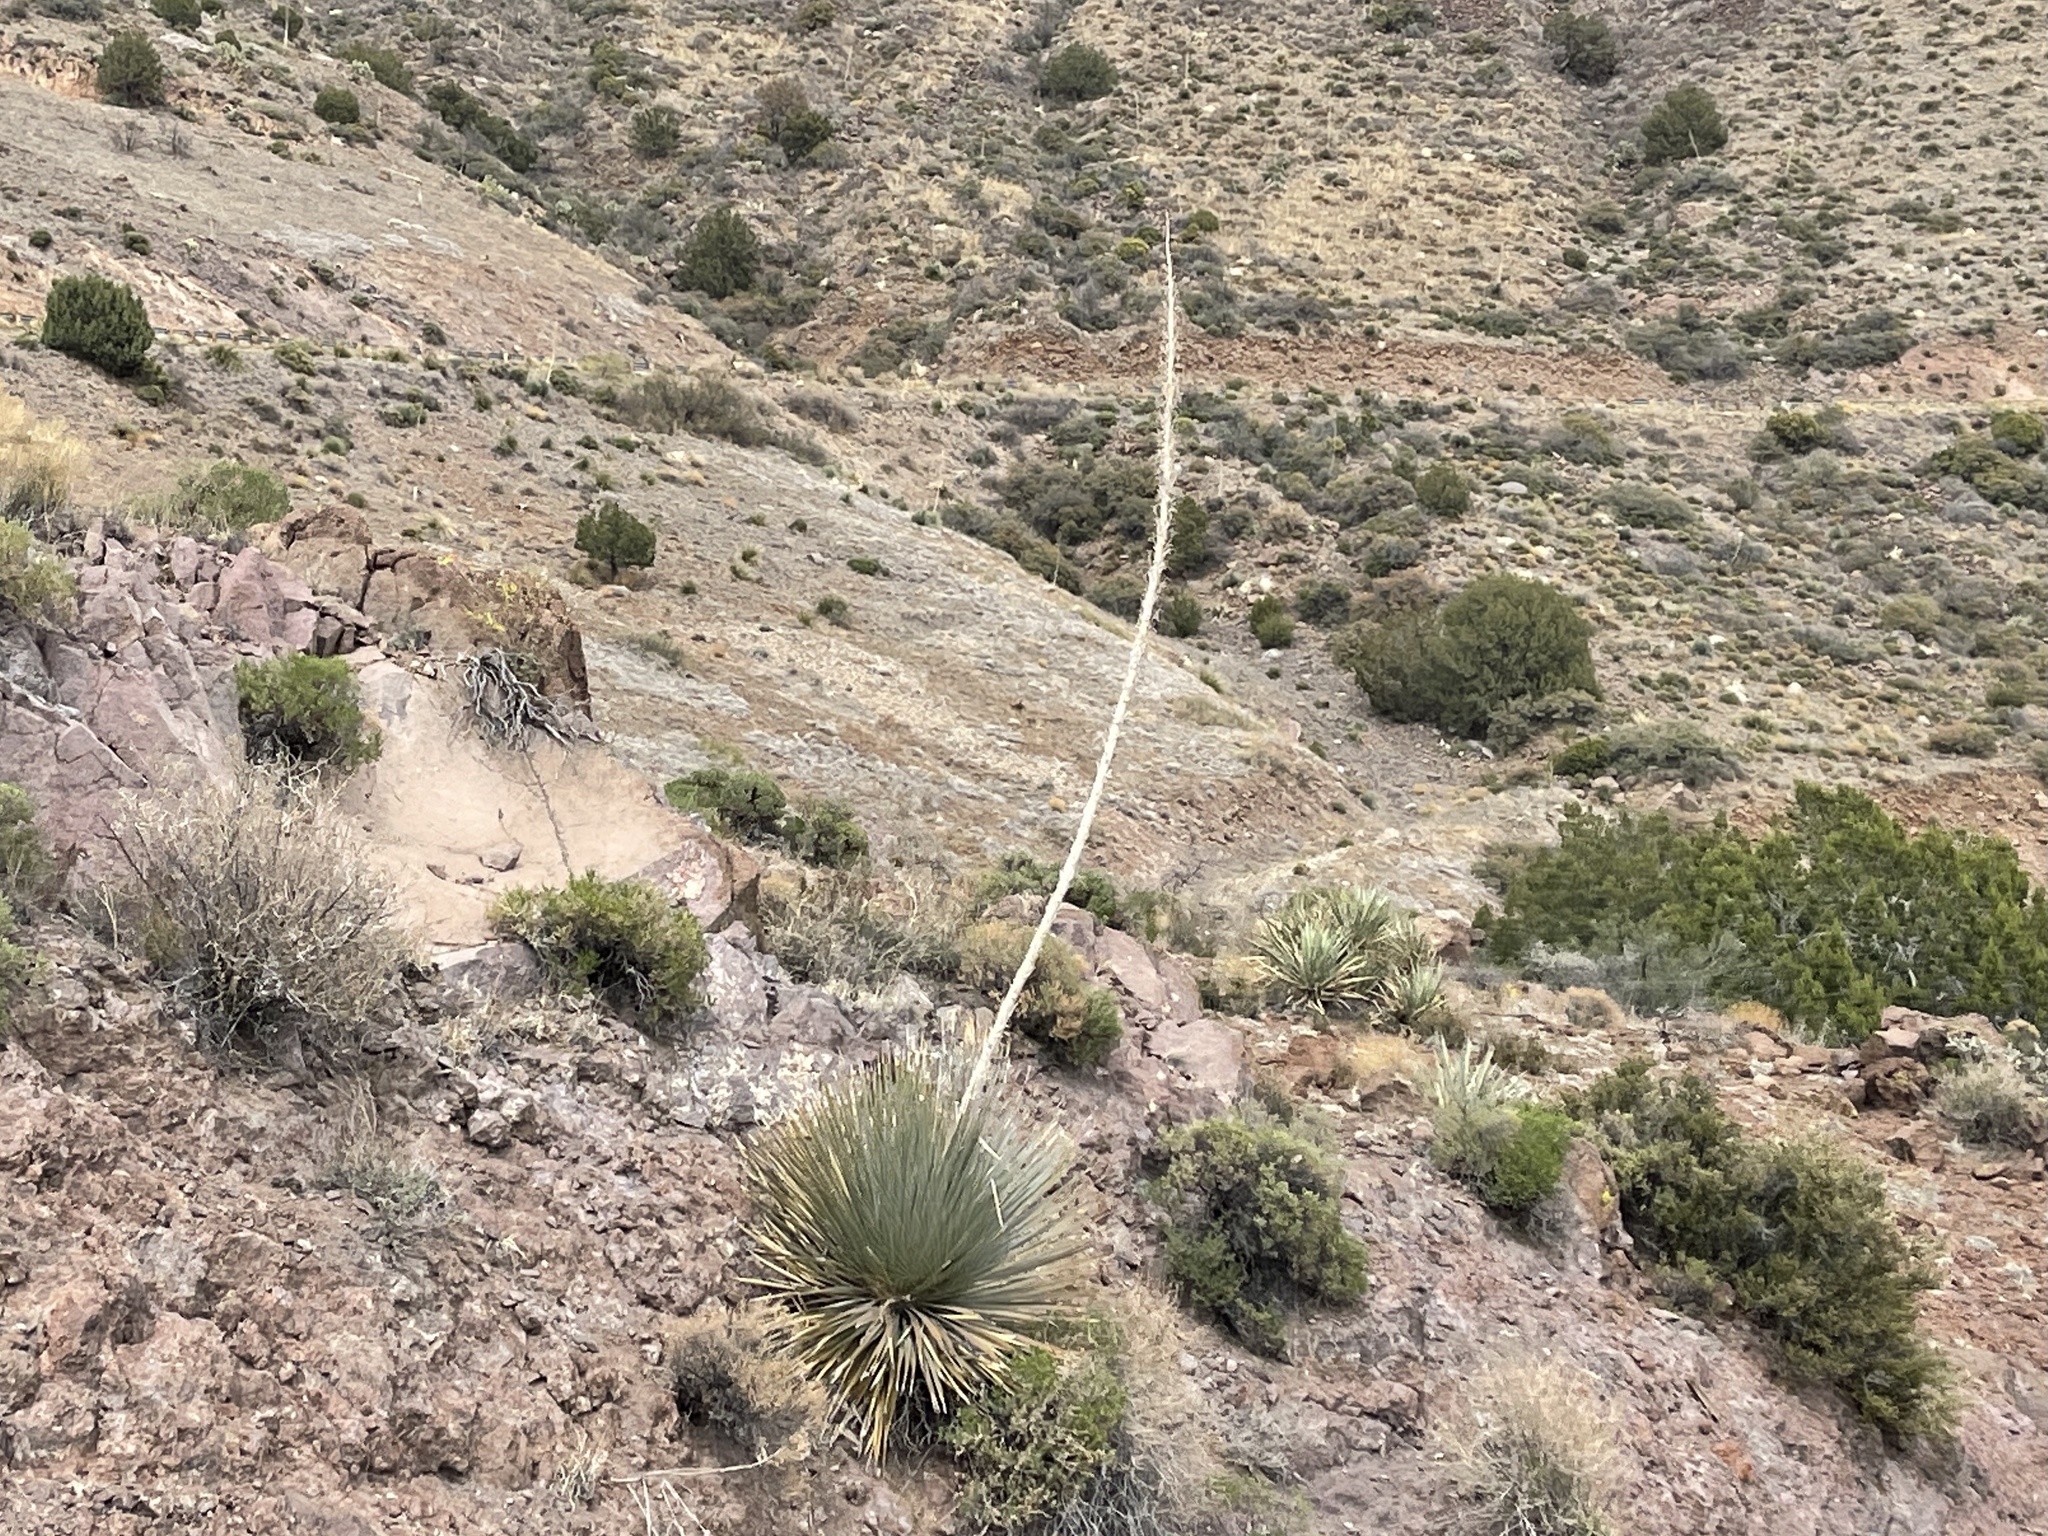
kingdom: Plantae
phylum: Tracheophyta
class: Liliopsida
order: Asparagales
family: Asparagaceae
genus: Dasylirion
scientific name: Dasylirion wheeleri
